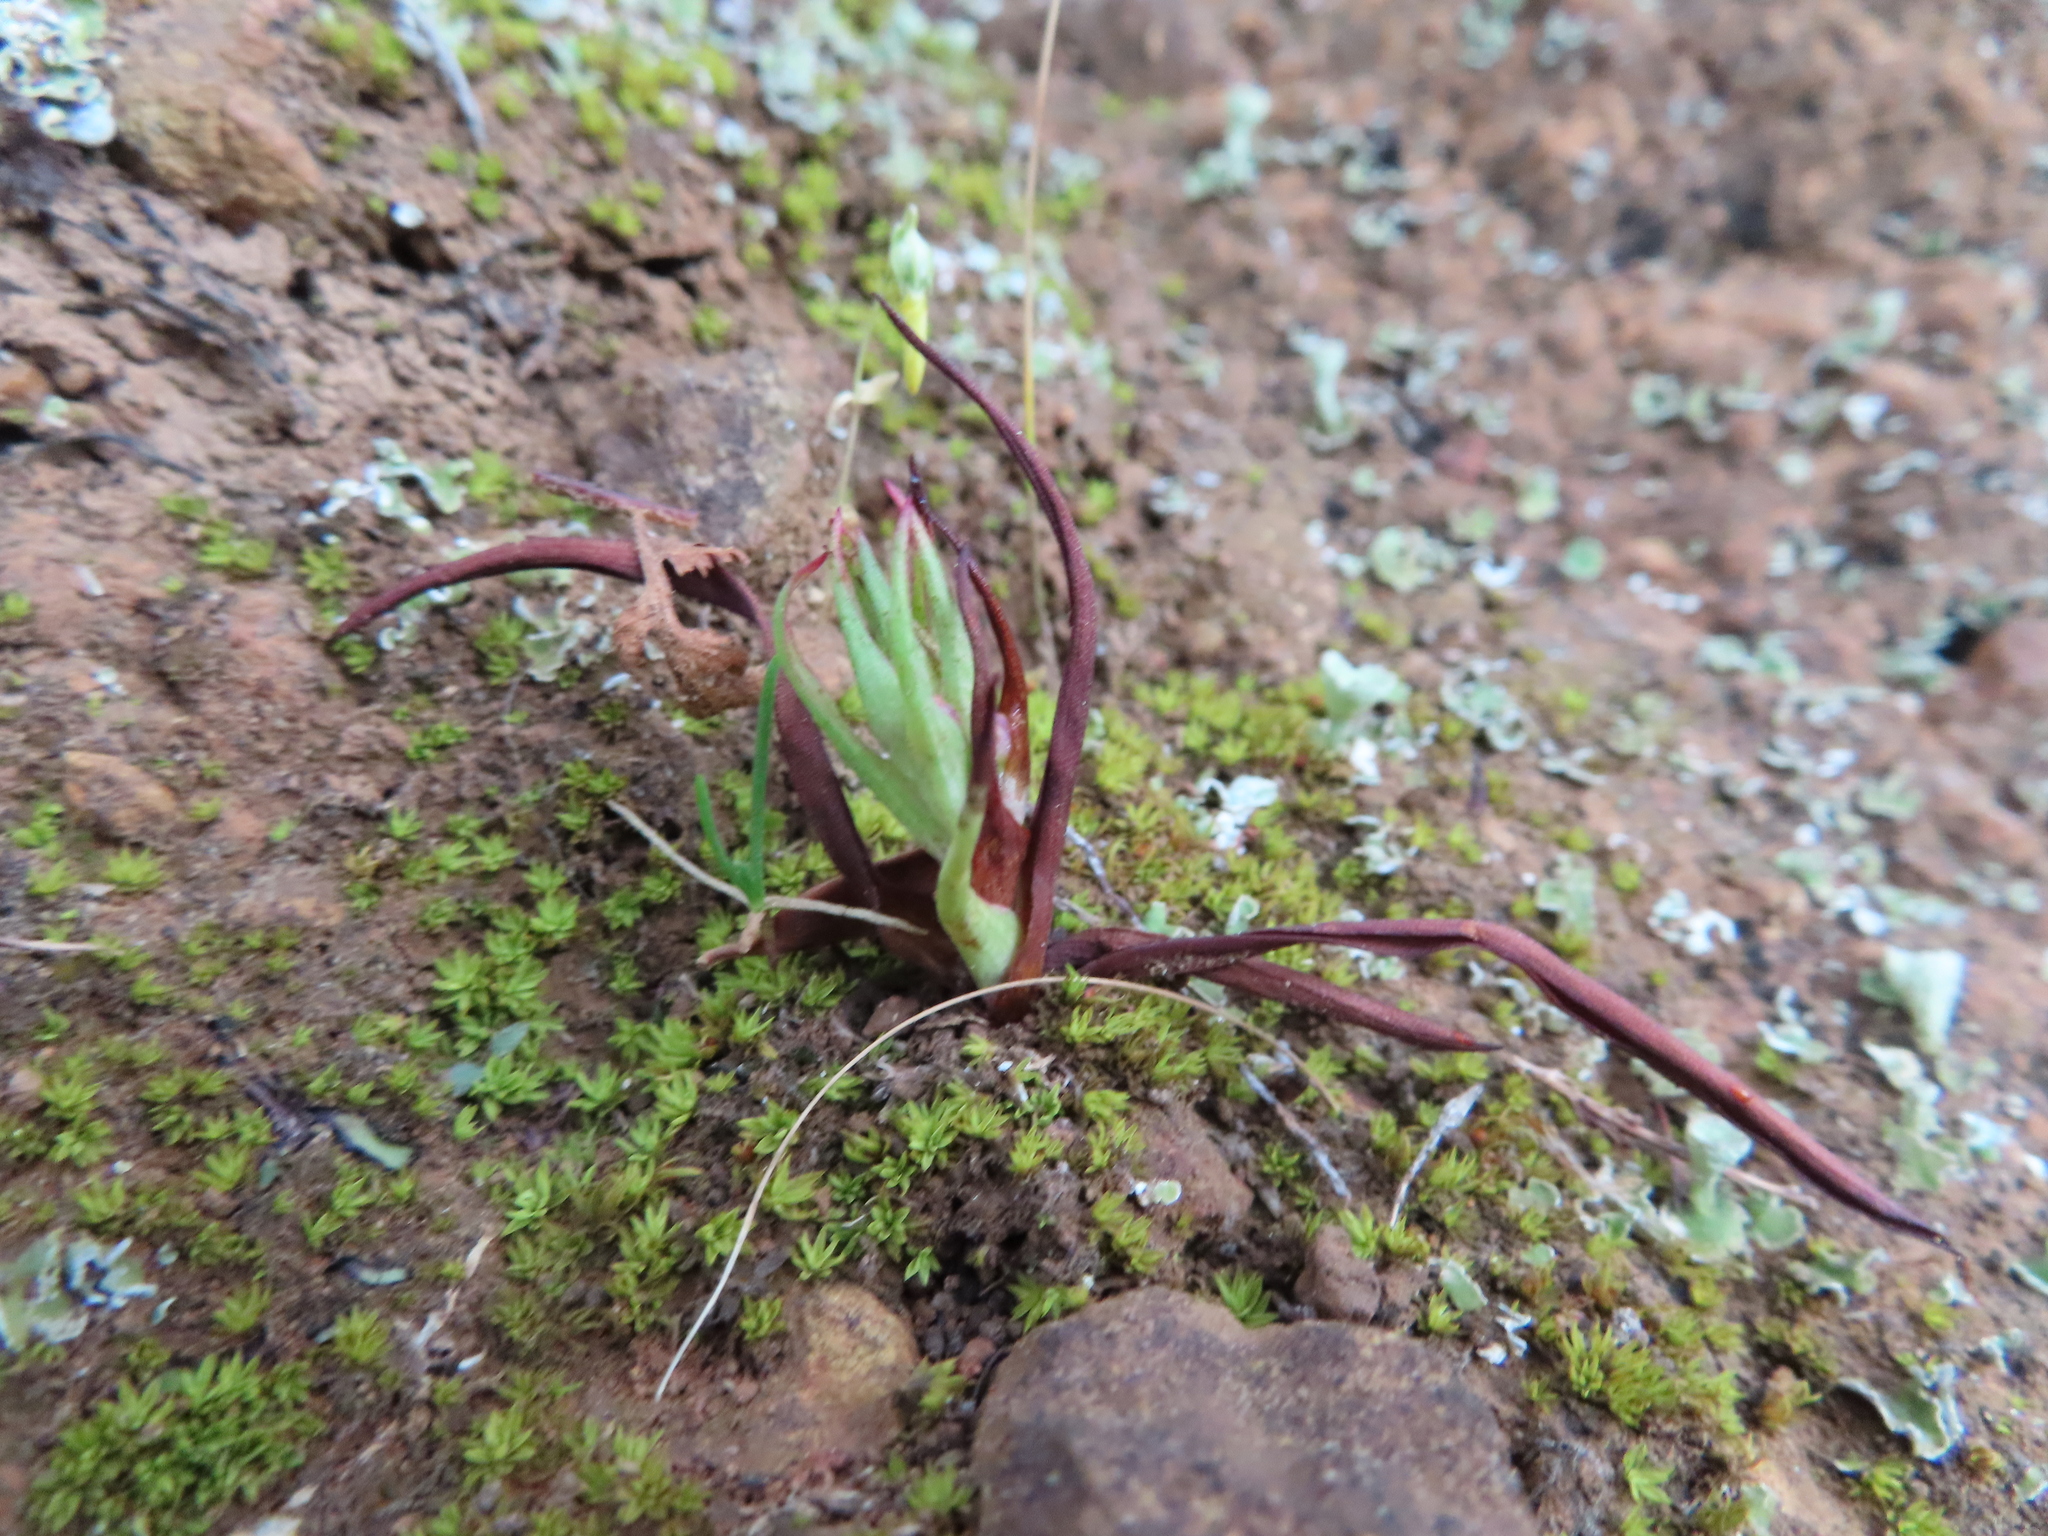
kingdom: Plantae
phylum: Tracheophyta
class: Liliopsida
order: Asparagales
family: Orchidaceae
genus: Disa
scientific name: Disa bracteata
